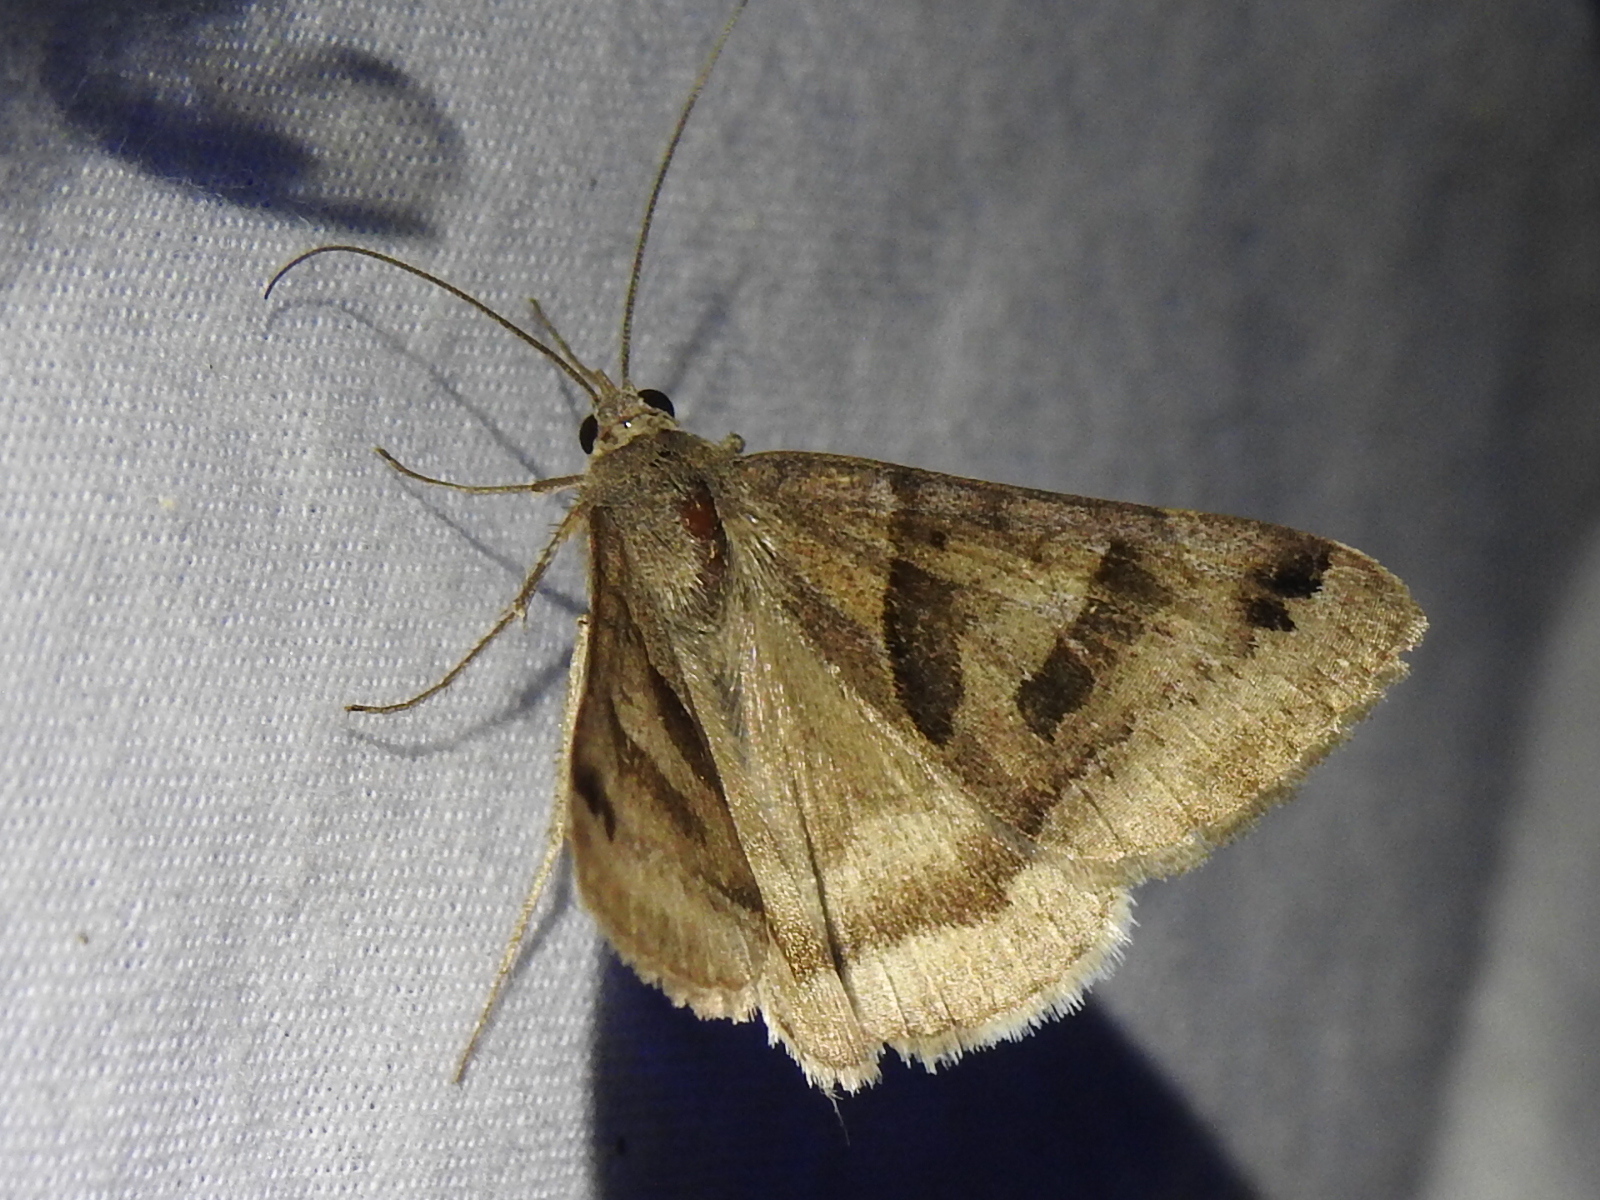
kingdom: Animalia
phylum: Arthropoda
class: Insecta
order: Lepidoptera
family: Erebidae
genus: Caenurgina
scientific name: Caenurgina erechtea
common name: Forage looper moth
